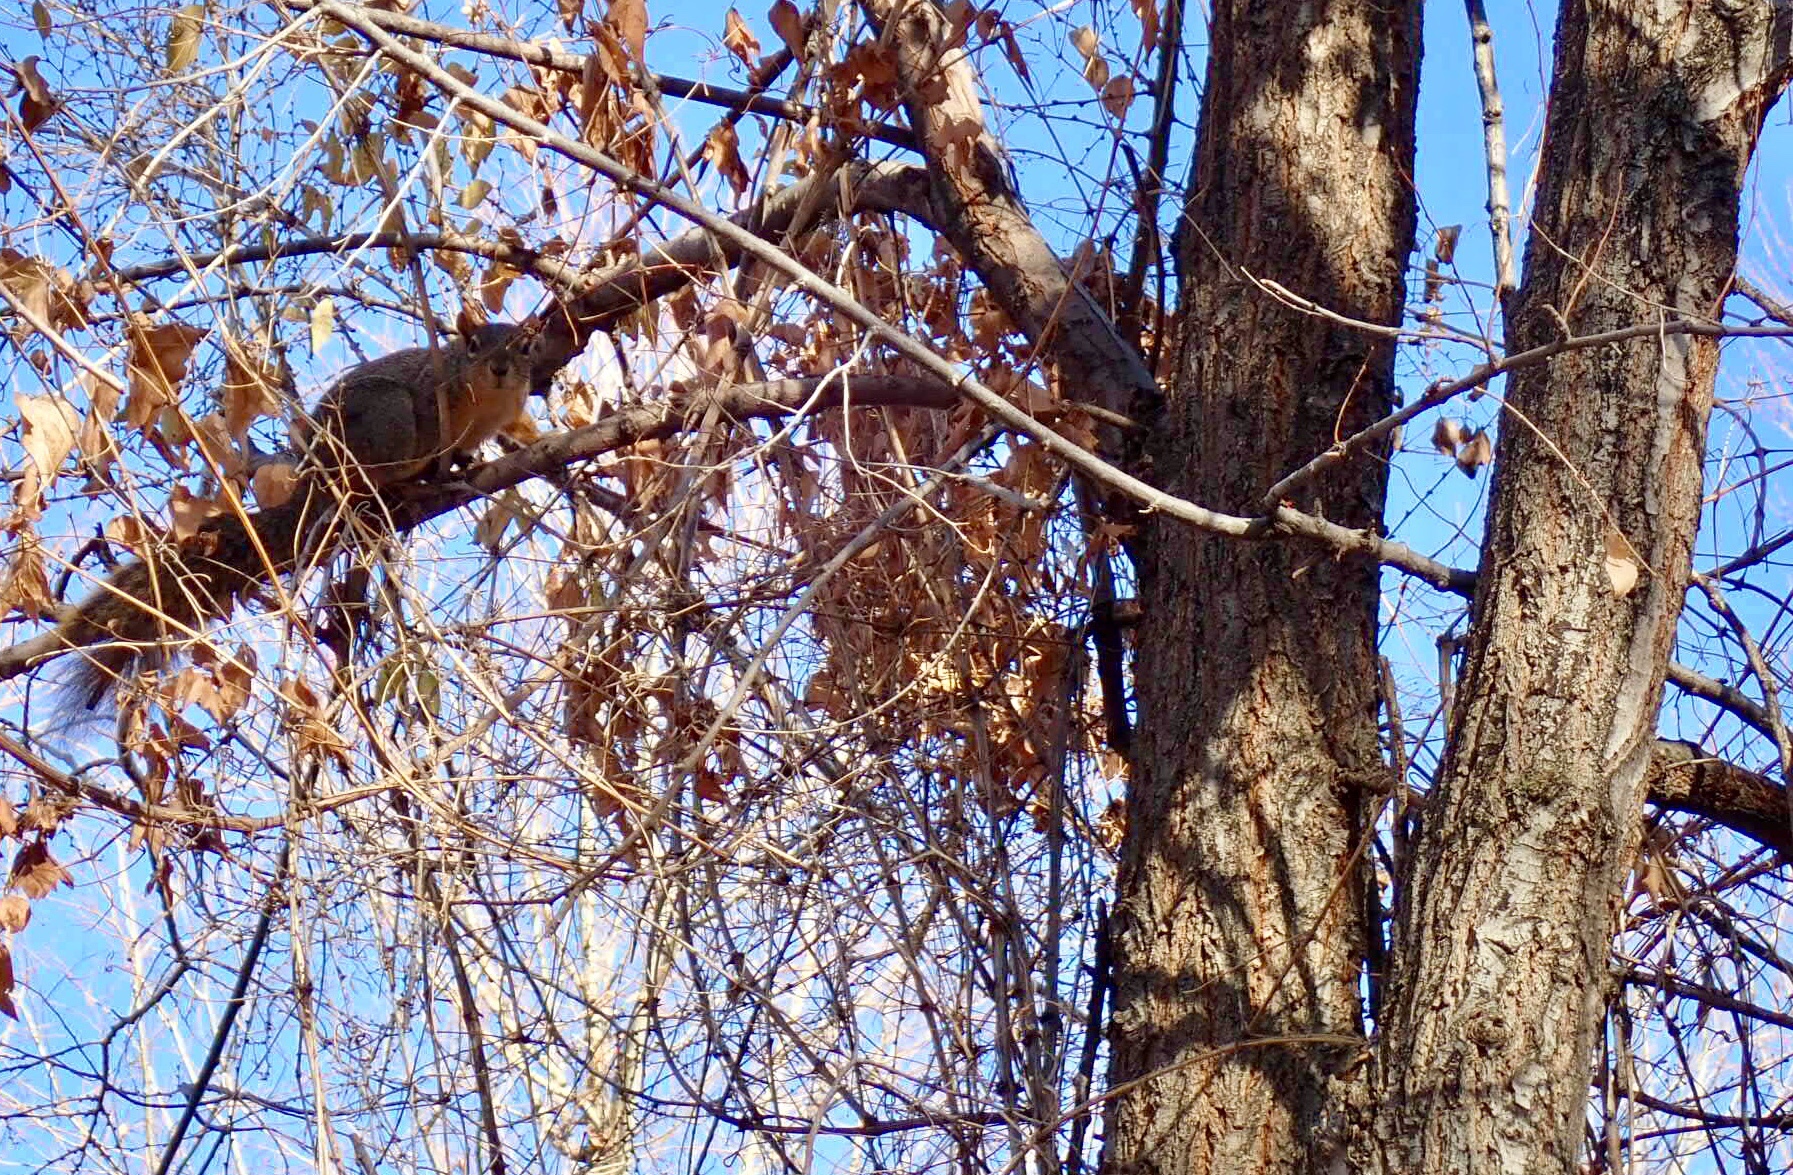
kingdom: Animalia
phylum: Chordata
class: Mammalia
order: Rodentia
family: Sciuridae
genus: Sciurus
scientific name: Sciurus niger
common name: Fox squirrel
